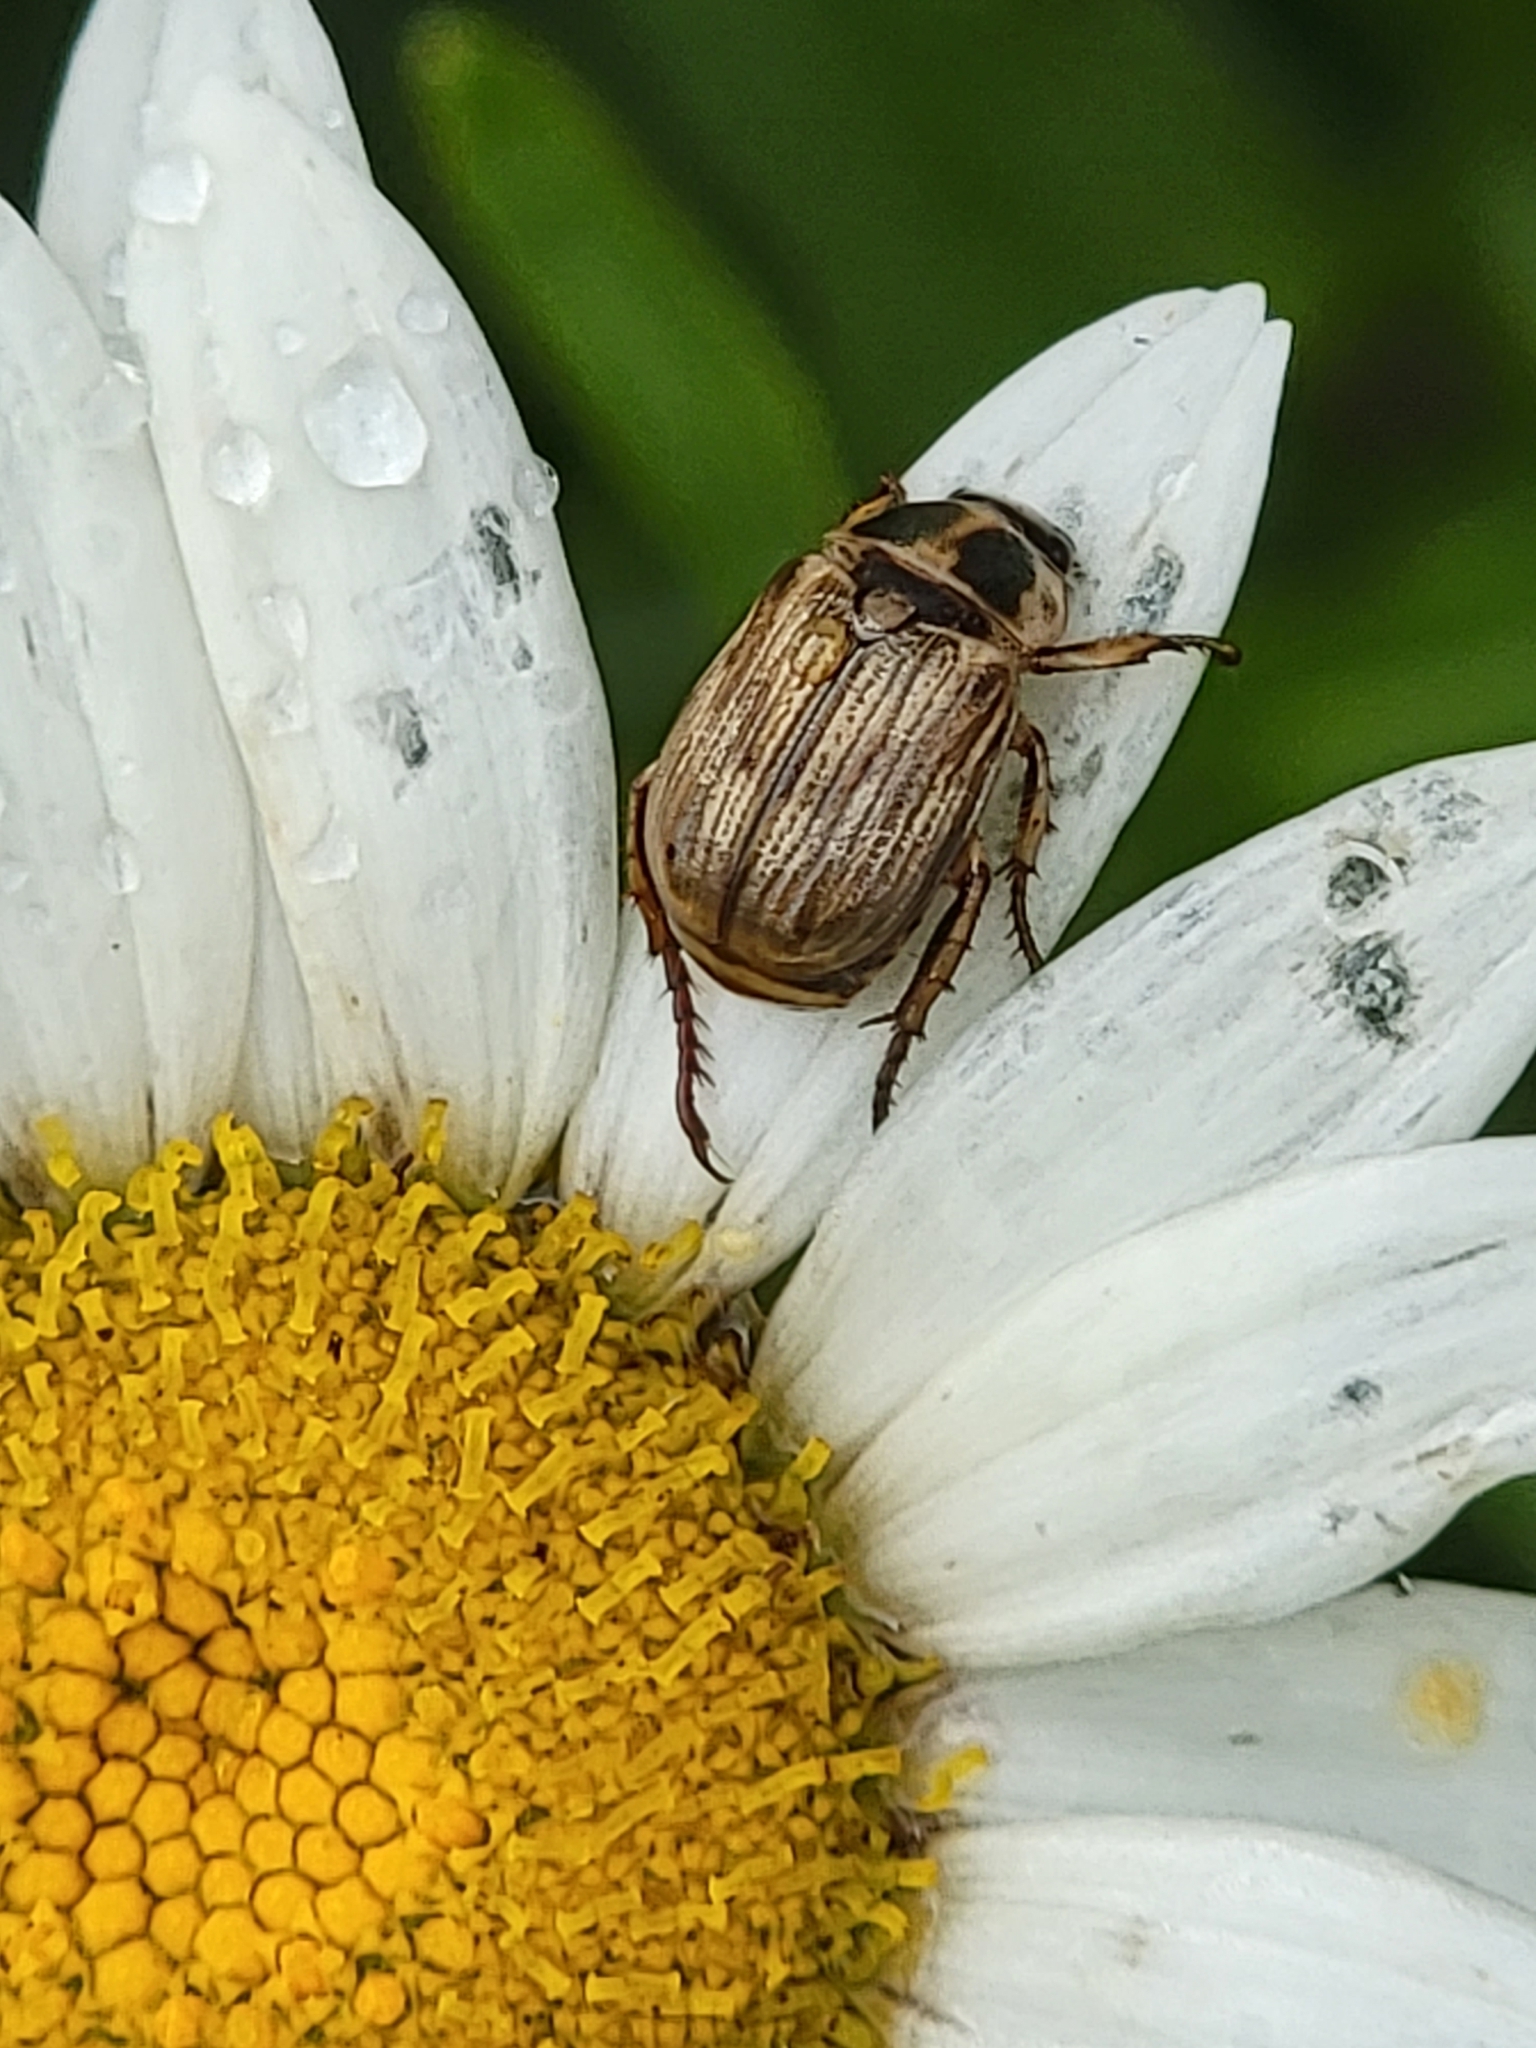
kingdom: Animalia
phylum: Arthropoda
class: Insecta
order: Coleoptera
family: Scarabaeidae
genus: Exomala
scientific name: Exomala orientalis
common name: Oriental beetle
